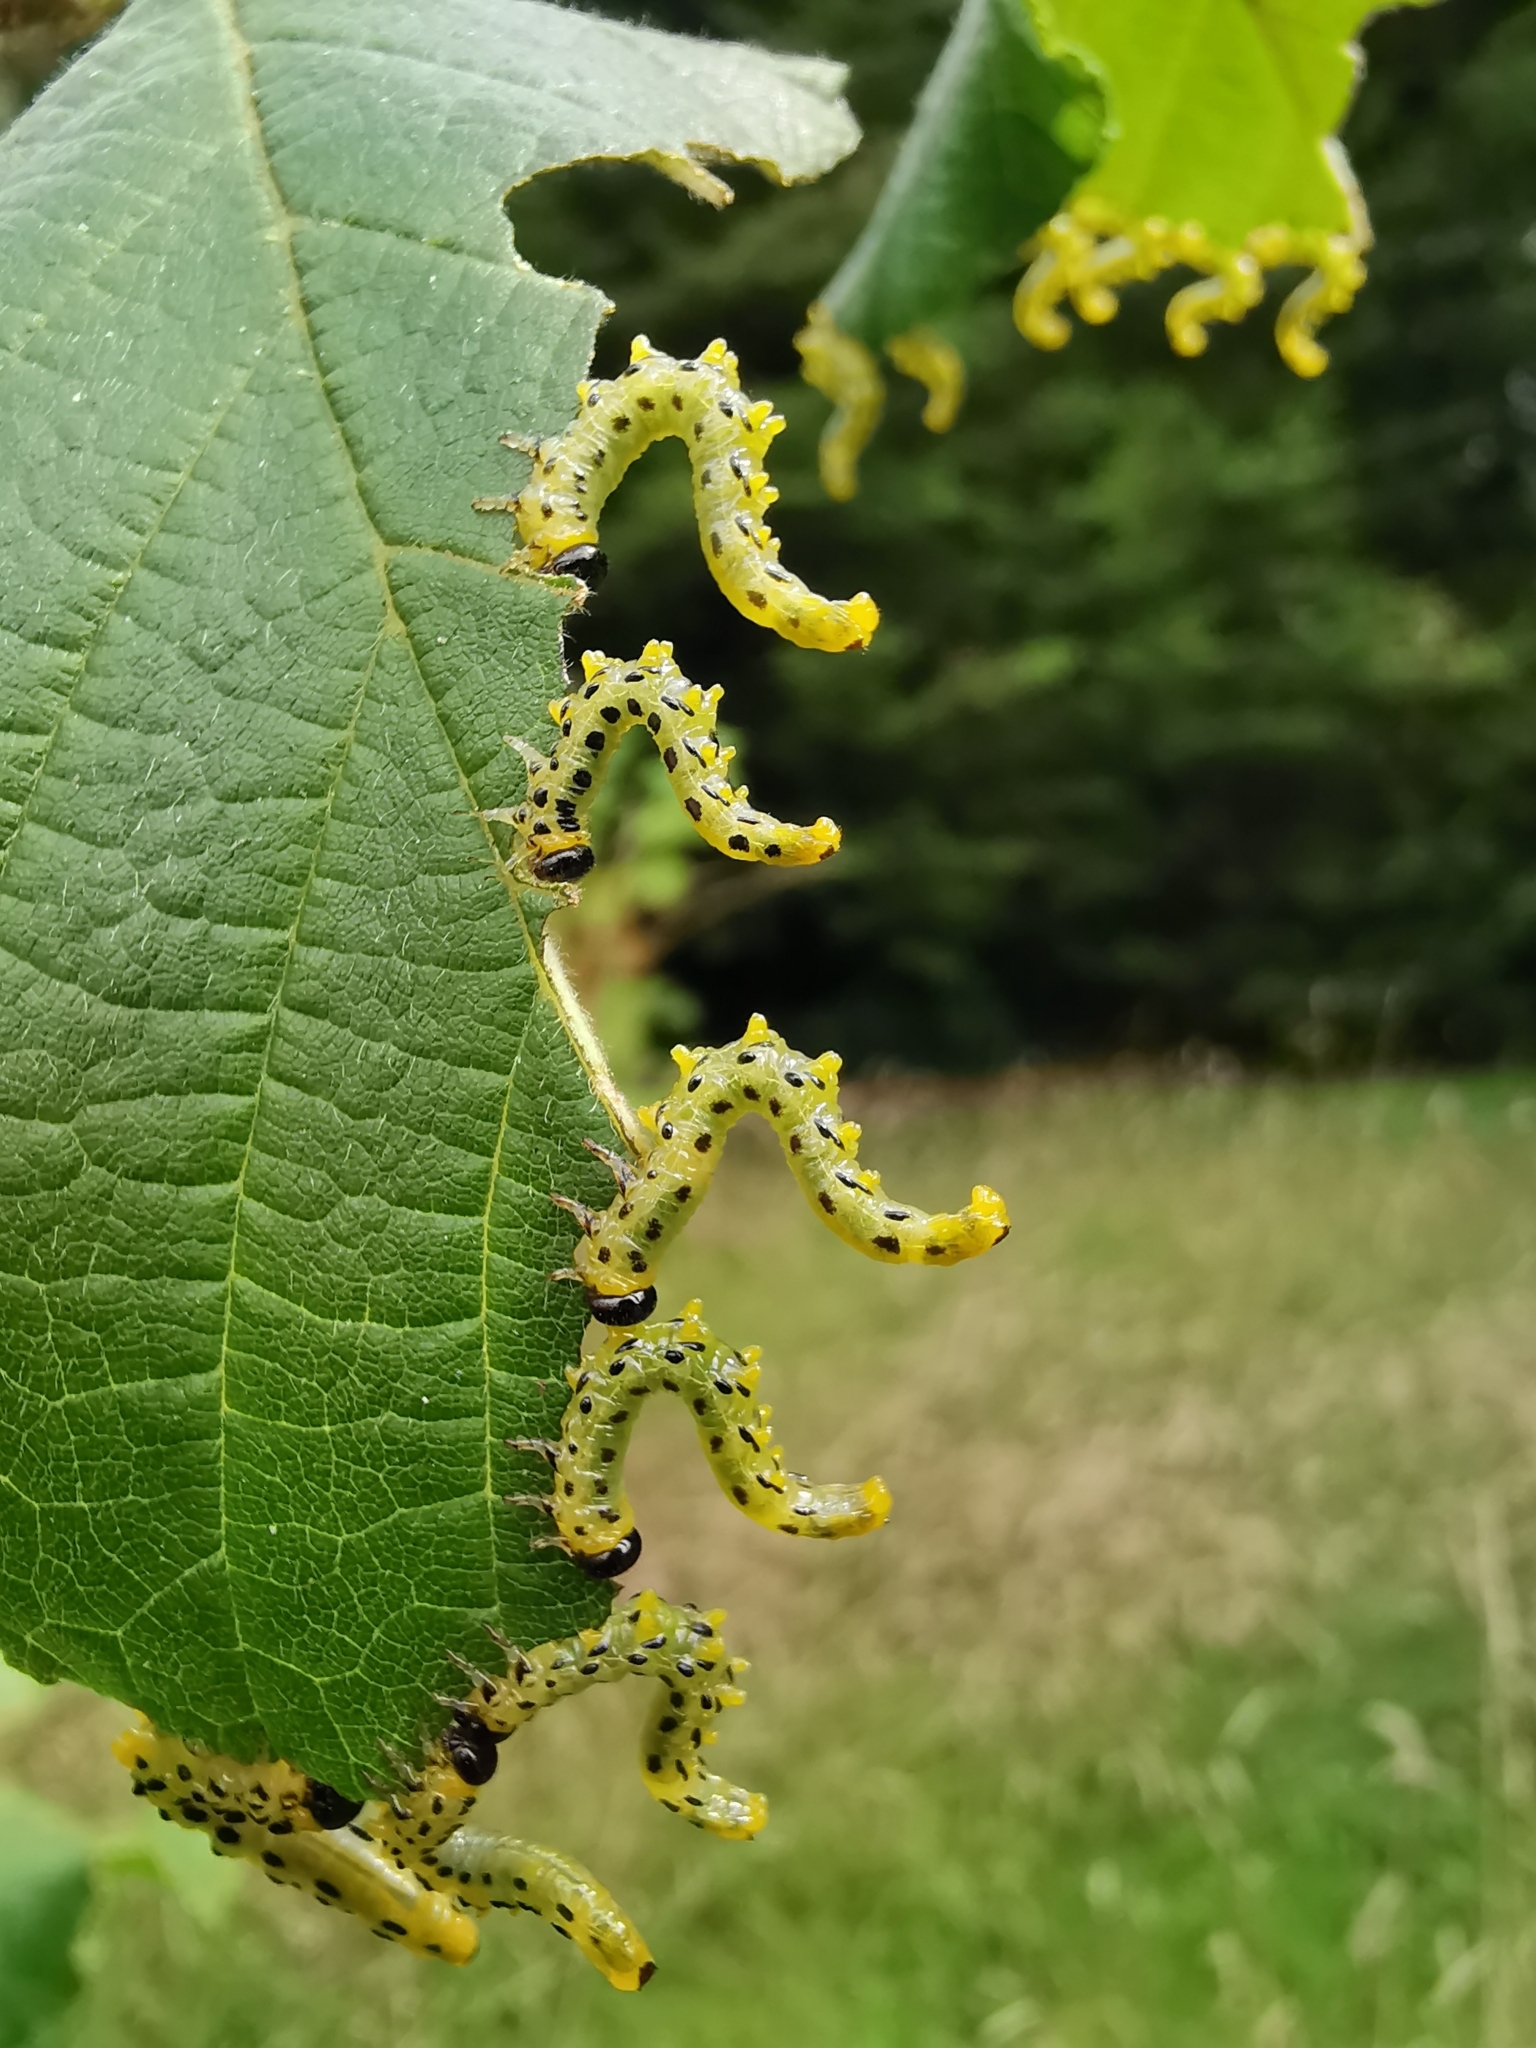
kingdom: Animalia
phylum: Arthropoda
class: Insecta
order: Hymenoptera
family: Tenthredinidae
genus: Craesus
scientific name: Craesus septentrionalis
